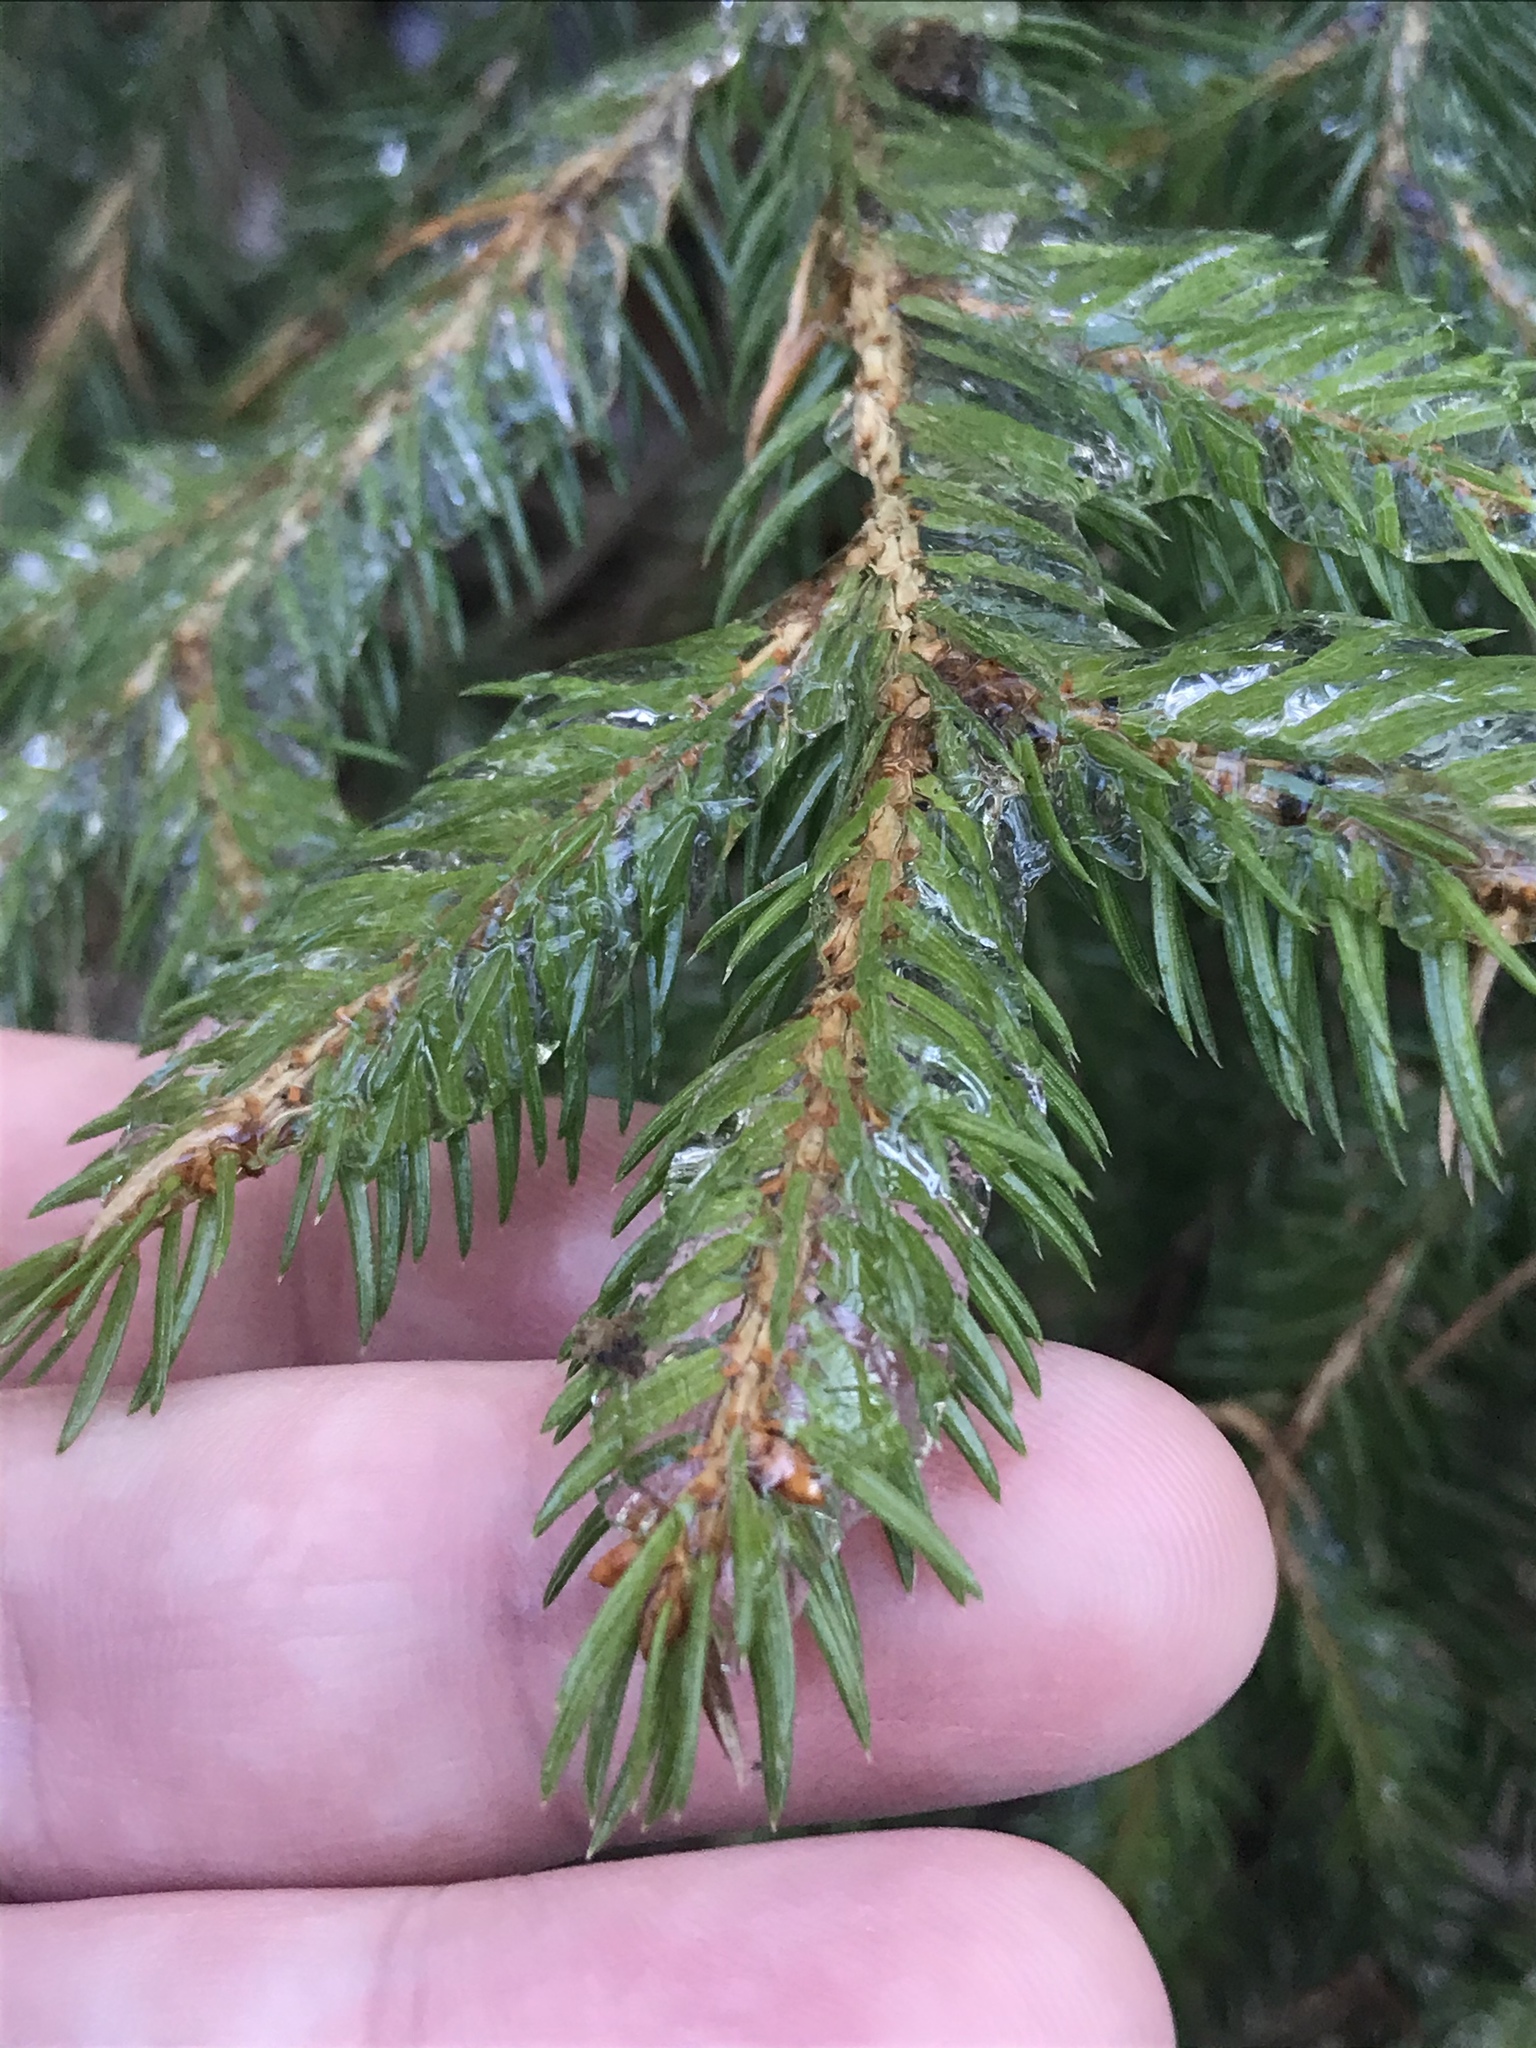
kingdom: Plantae
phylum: Tracheophyta
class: Pinopsida
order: Pinales
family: Pinaceae
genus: Picea
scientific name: Picea abies
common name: Norway spruce
